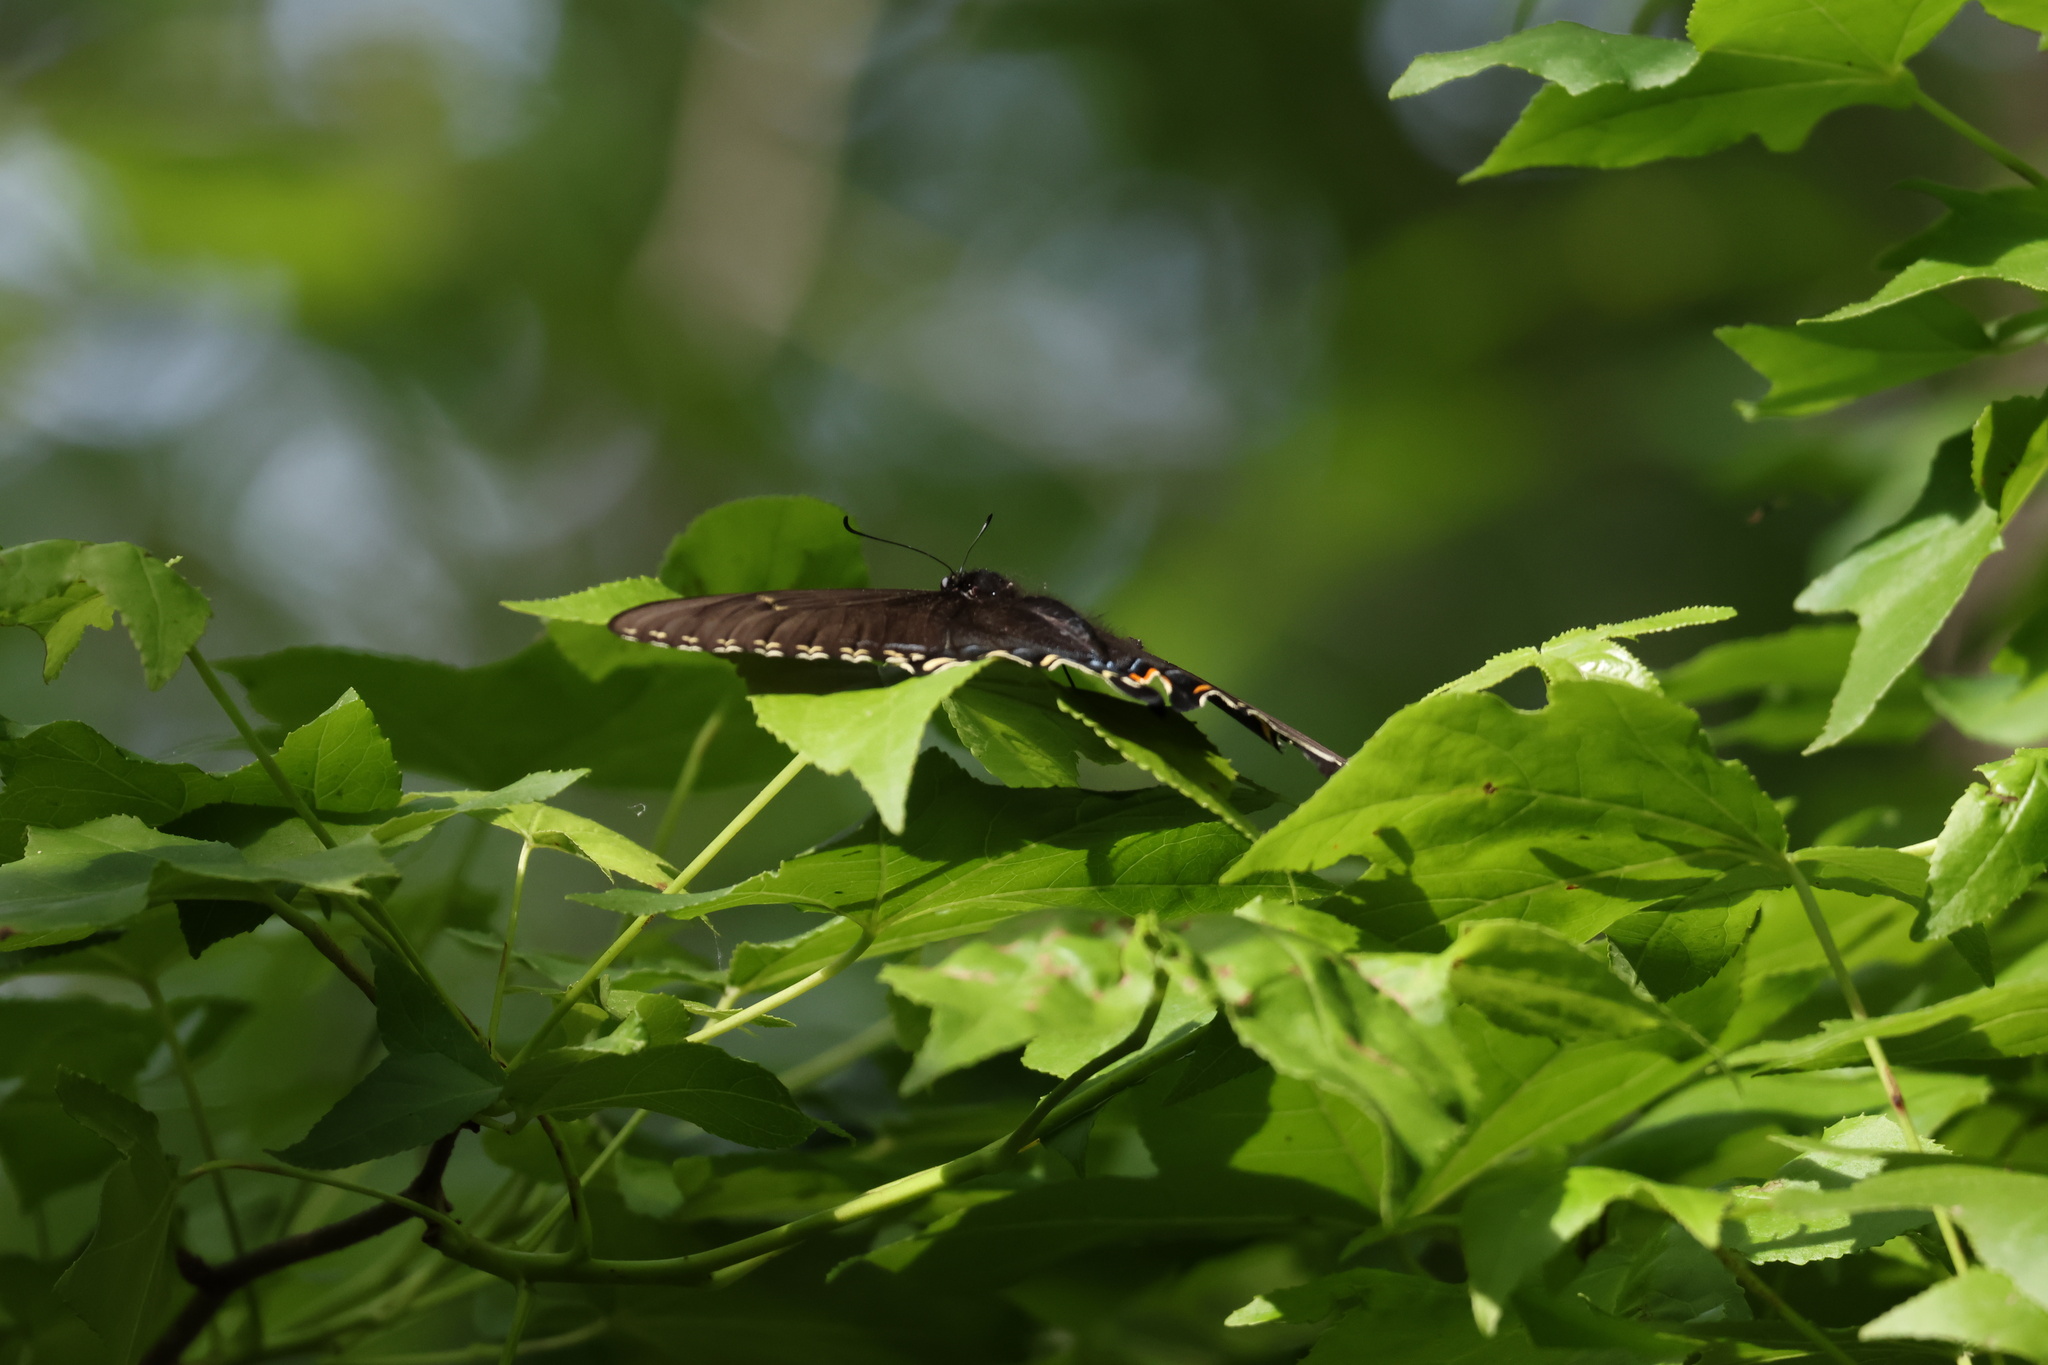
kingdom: Animalia
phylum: Arthropoda
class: Insecta
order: Lepidoptera
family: Papilionidae
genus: Papilio
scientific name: Papilio glaucus
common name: Tiger swallowtail
